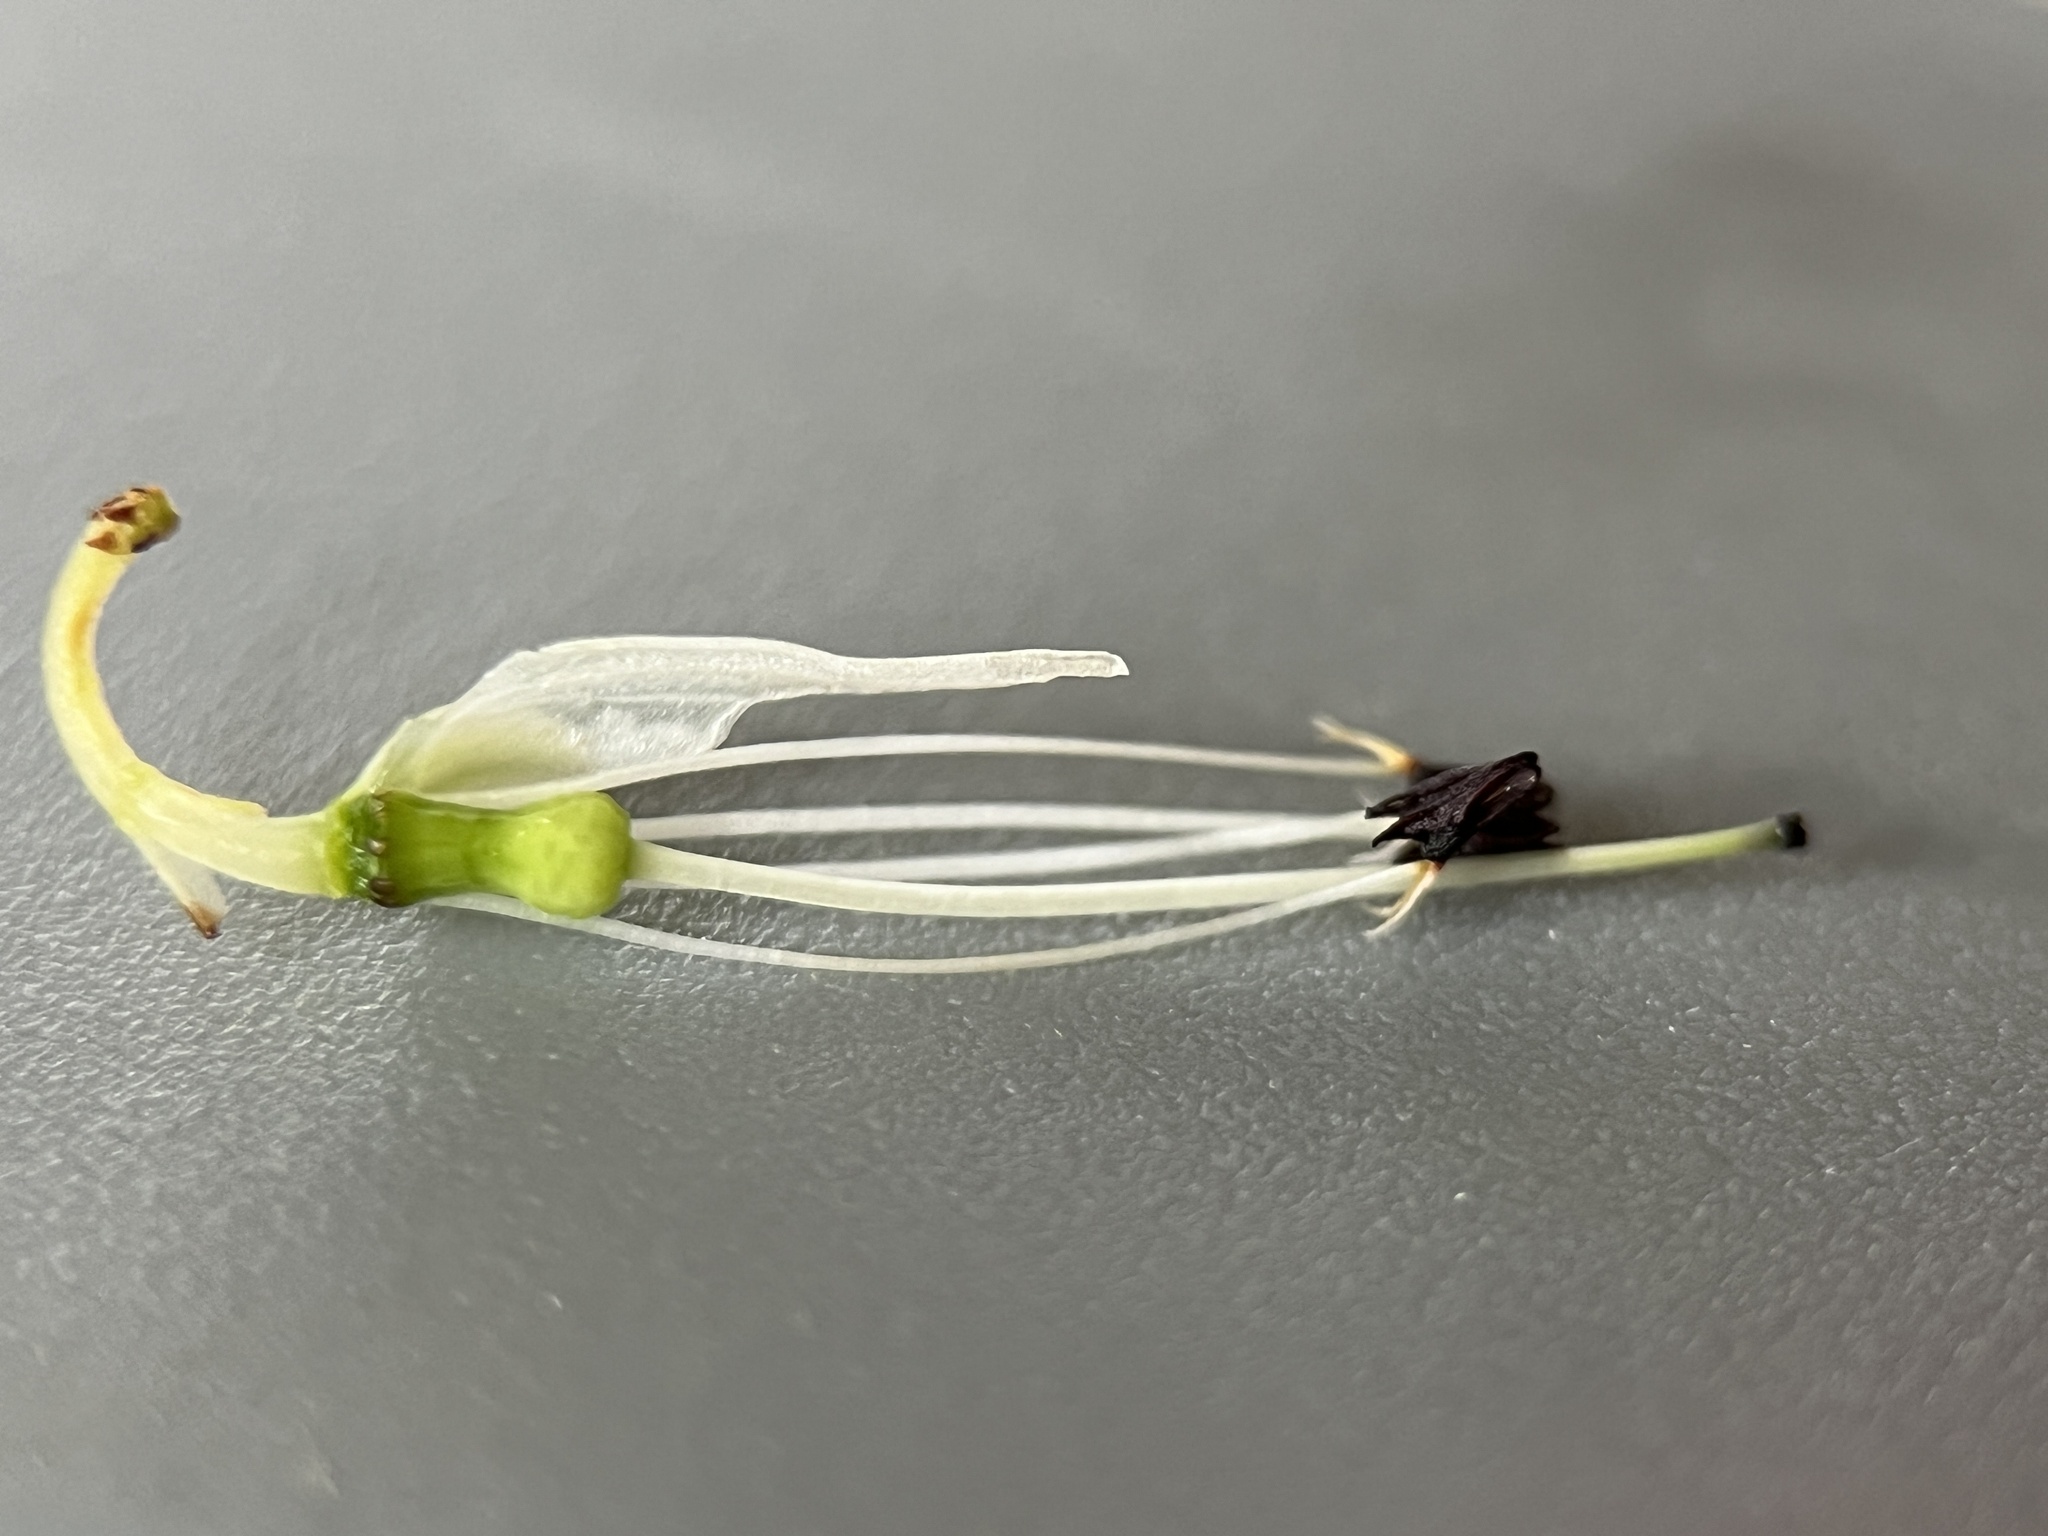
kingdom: Plantae
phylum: Tracheophyta
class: Magnoliopsida
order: Ericales
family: Ericaceae
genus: Erica
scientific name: Erica penduliflora
